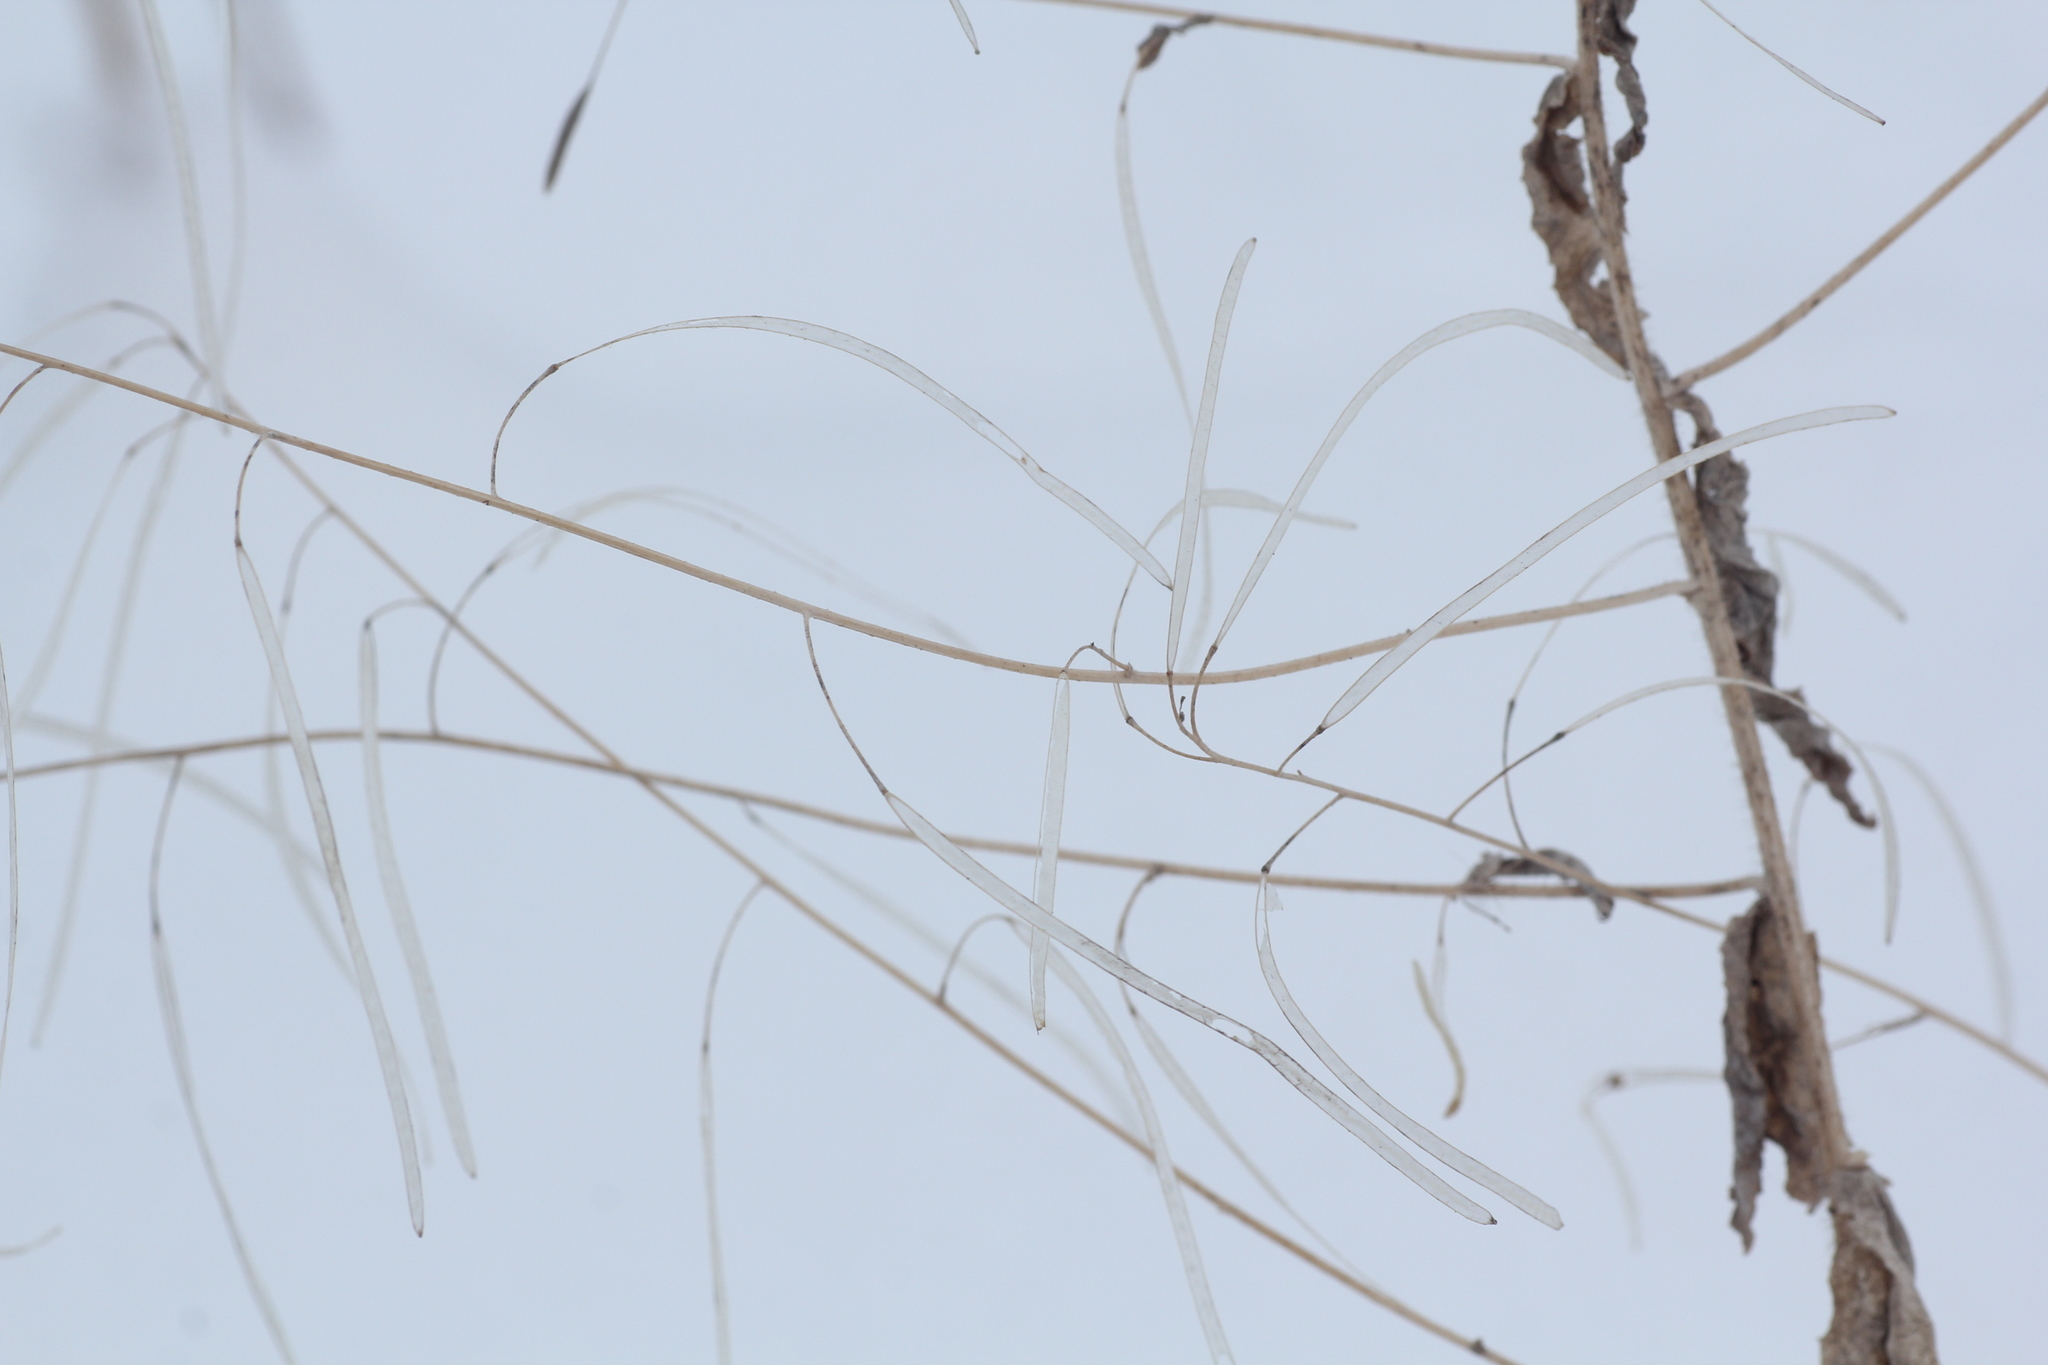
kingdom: Plantae
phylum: Tracheophyta
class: Magnoliopsida
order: Brassicales
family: Brassicaceae
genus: Catolobus
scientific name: Catolobus pendulus
